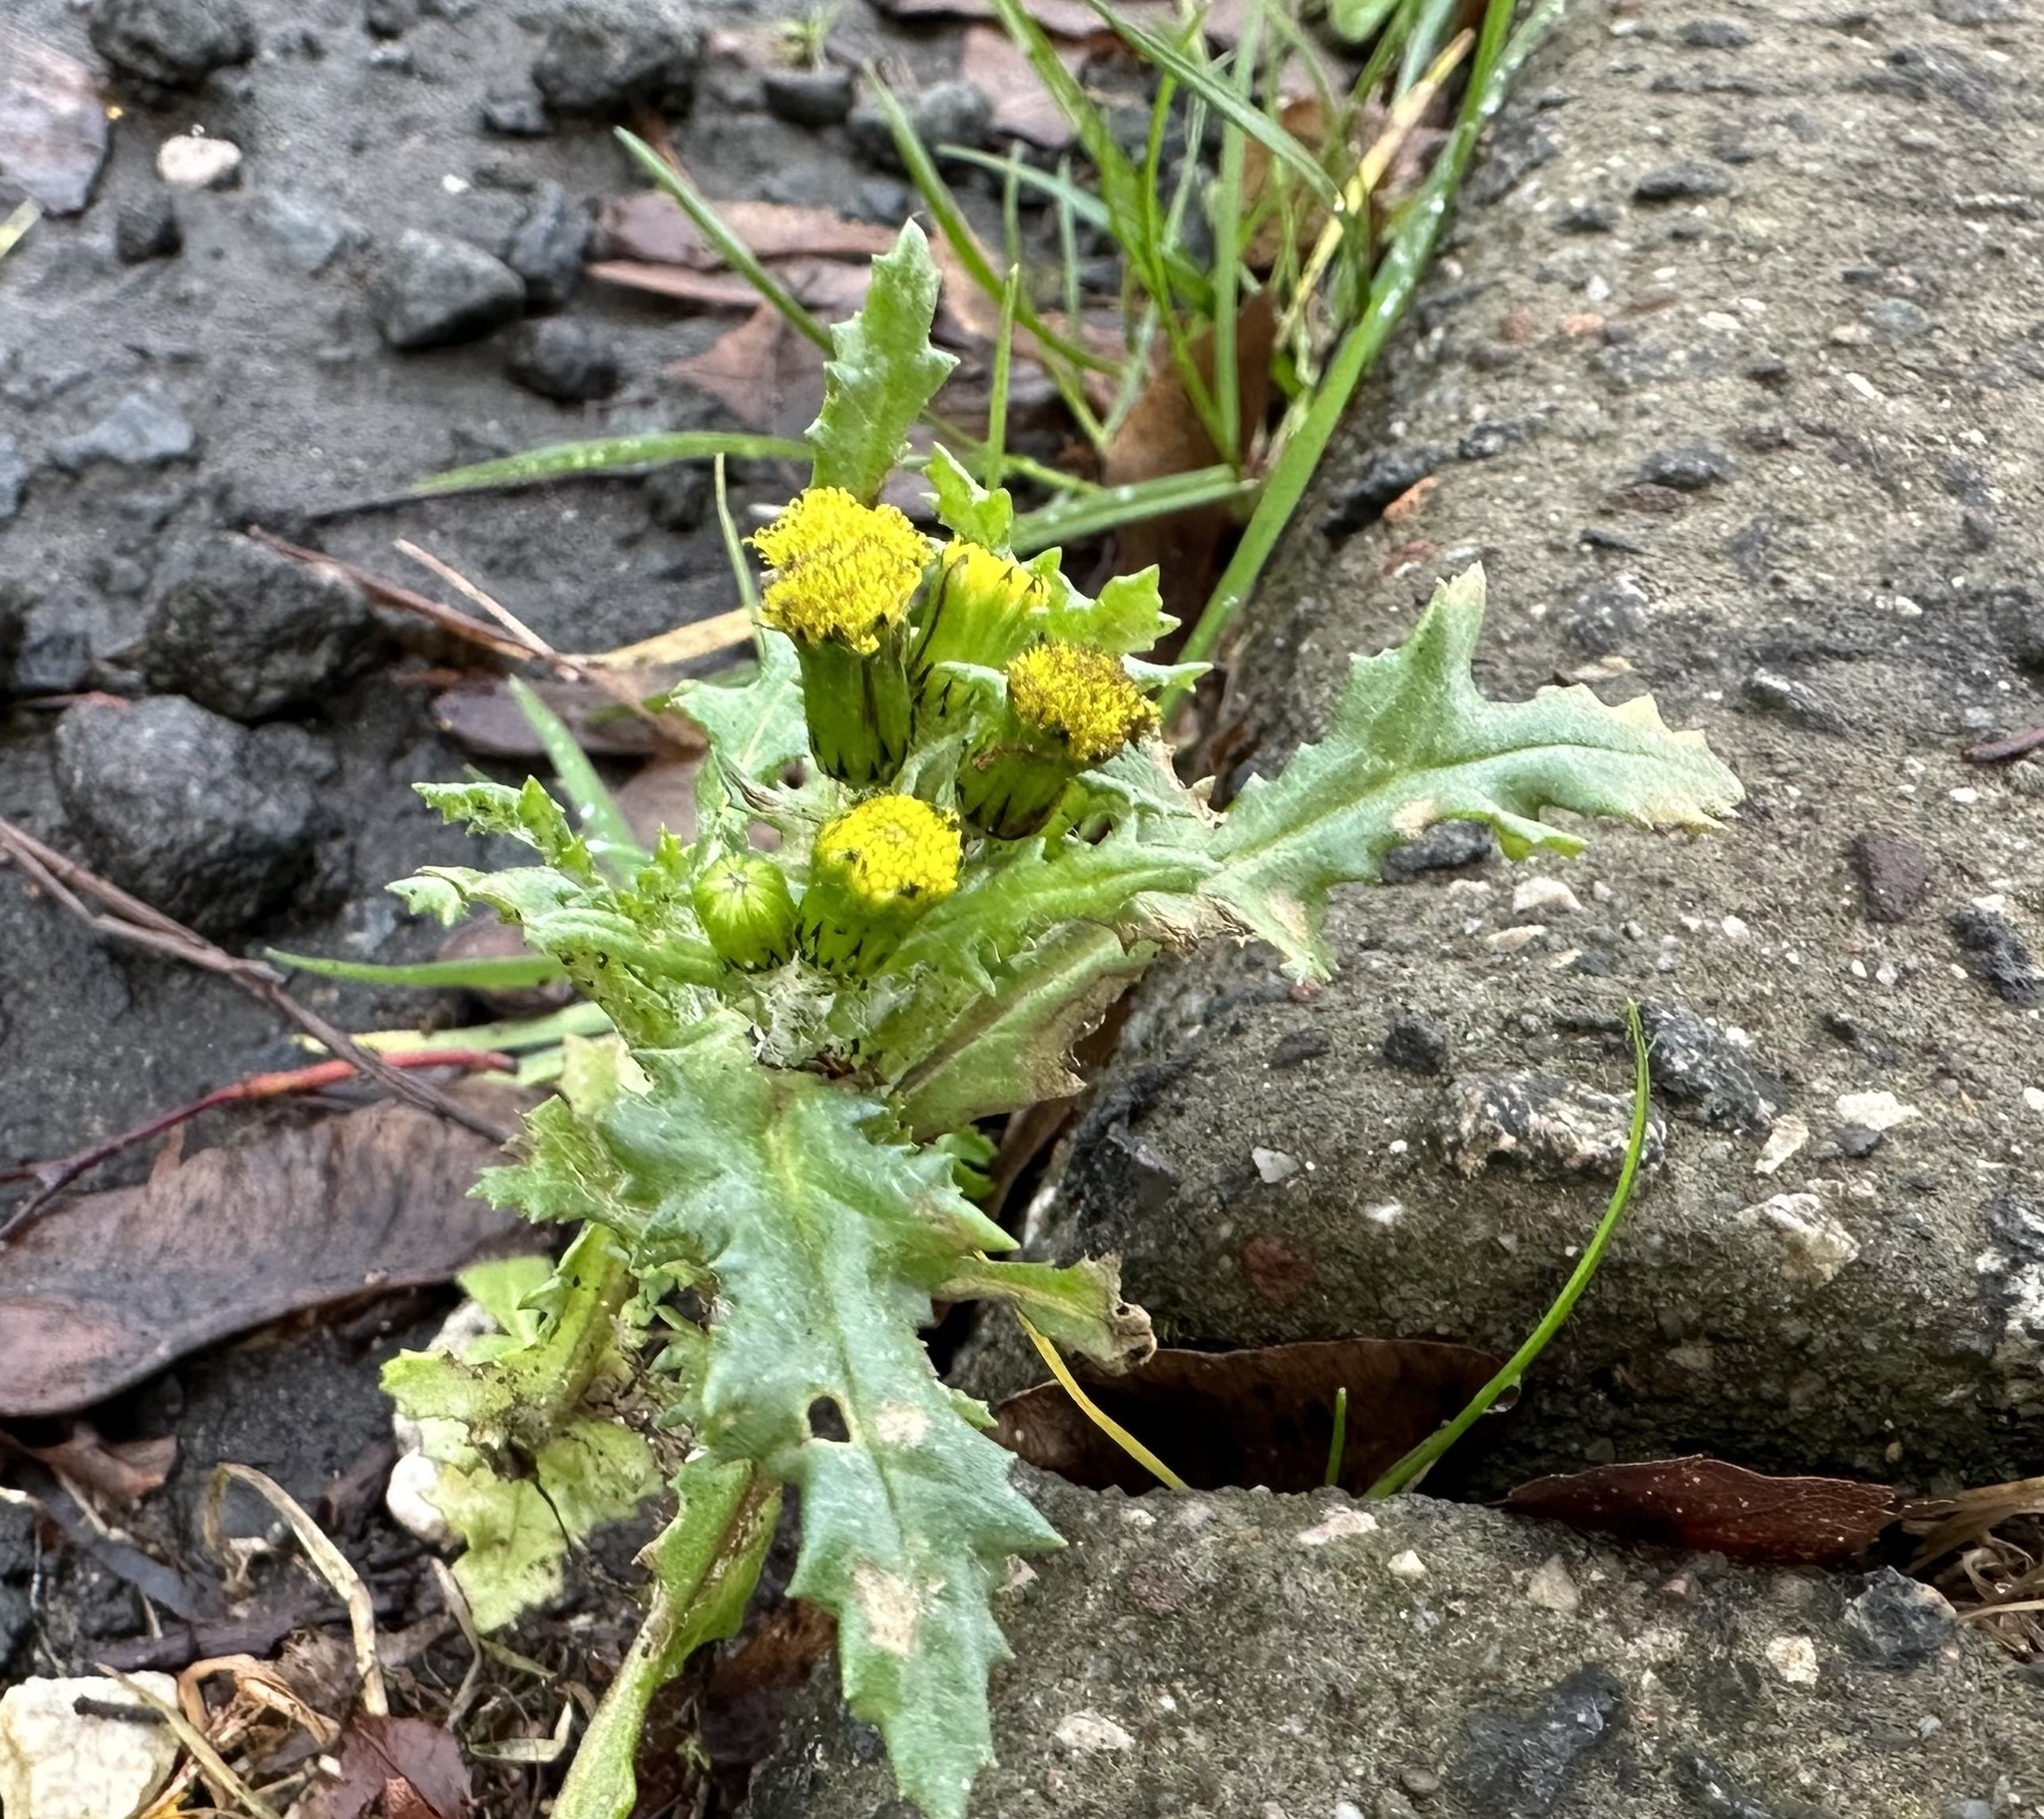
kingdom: Plantae
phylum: Tracheophyta
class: Magnoliopsida
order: Asterales
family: Asteraceae
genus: Senecio
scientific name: Senecio vulgaris
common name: Old-man-in-the-spring
